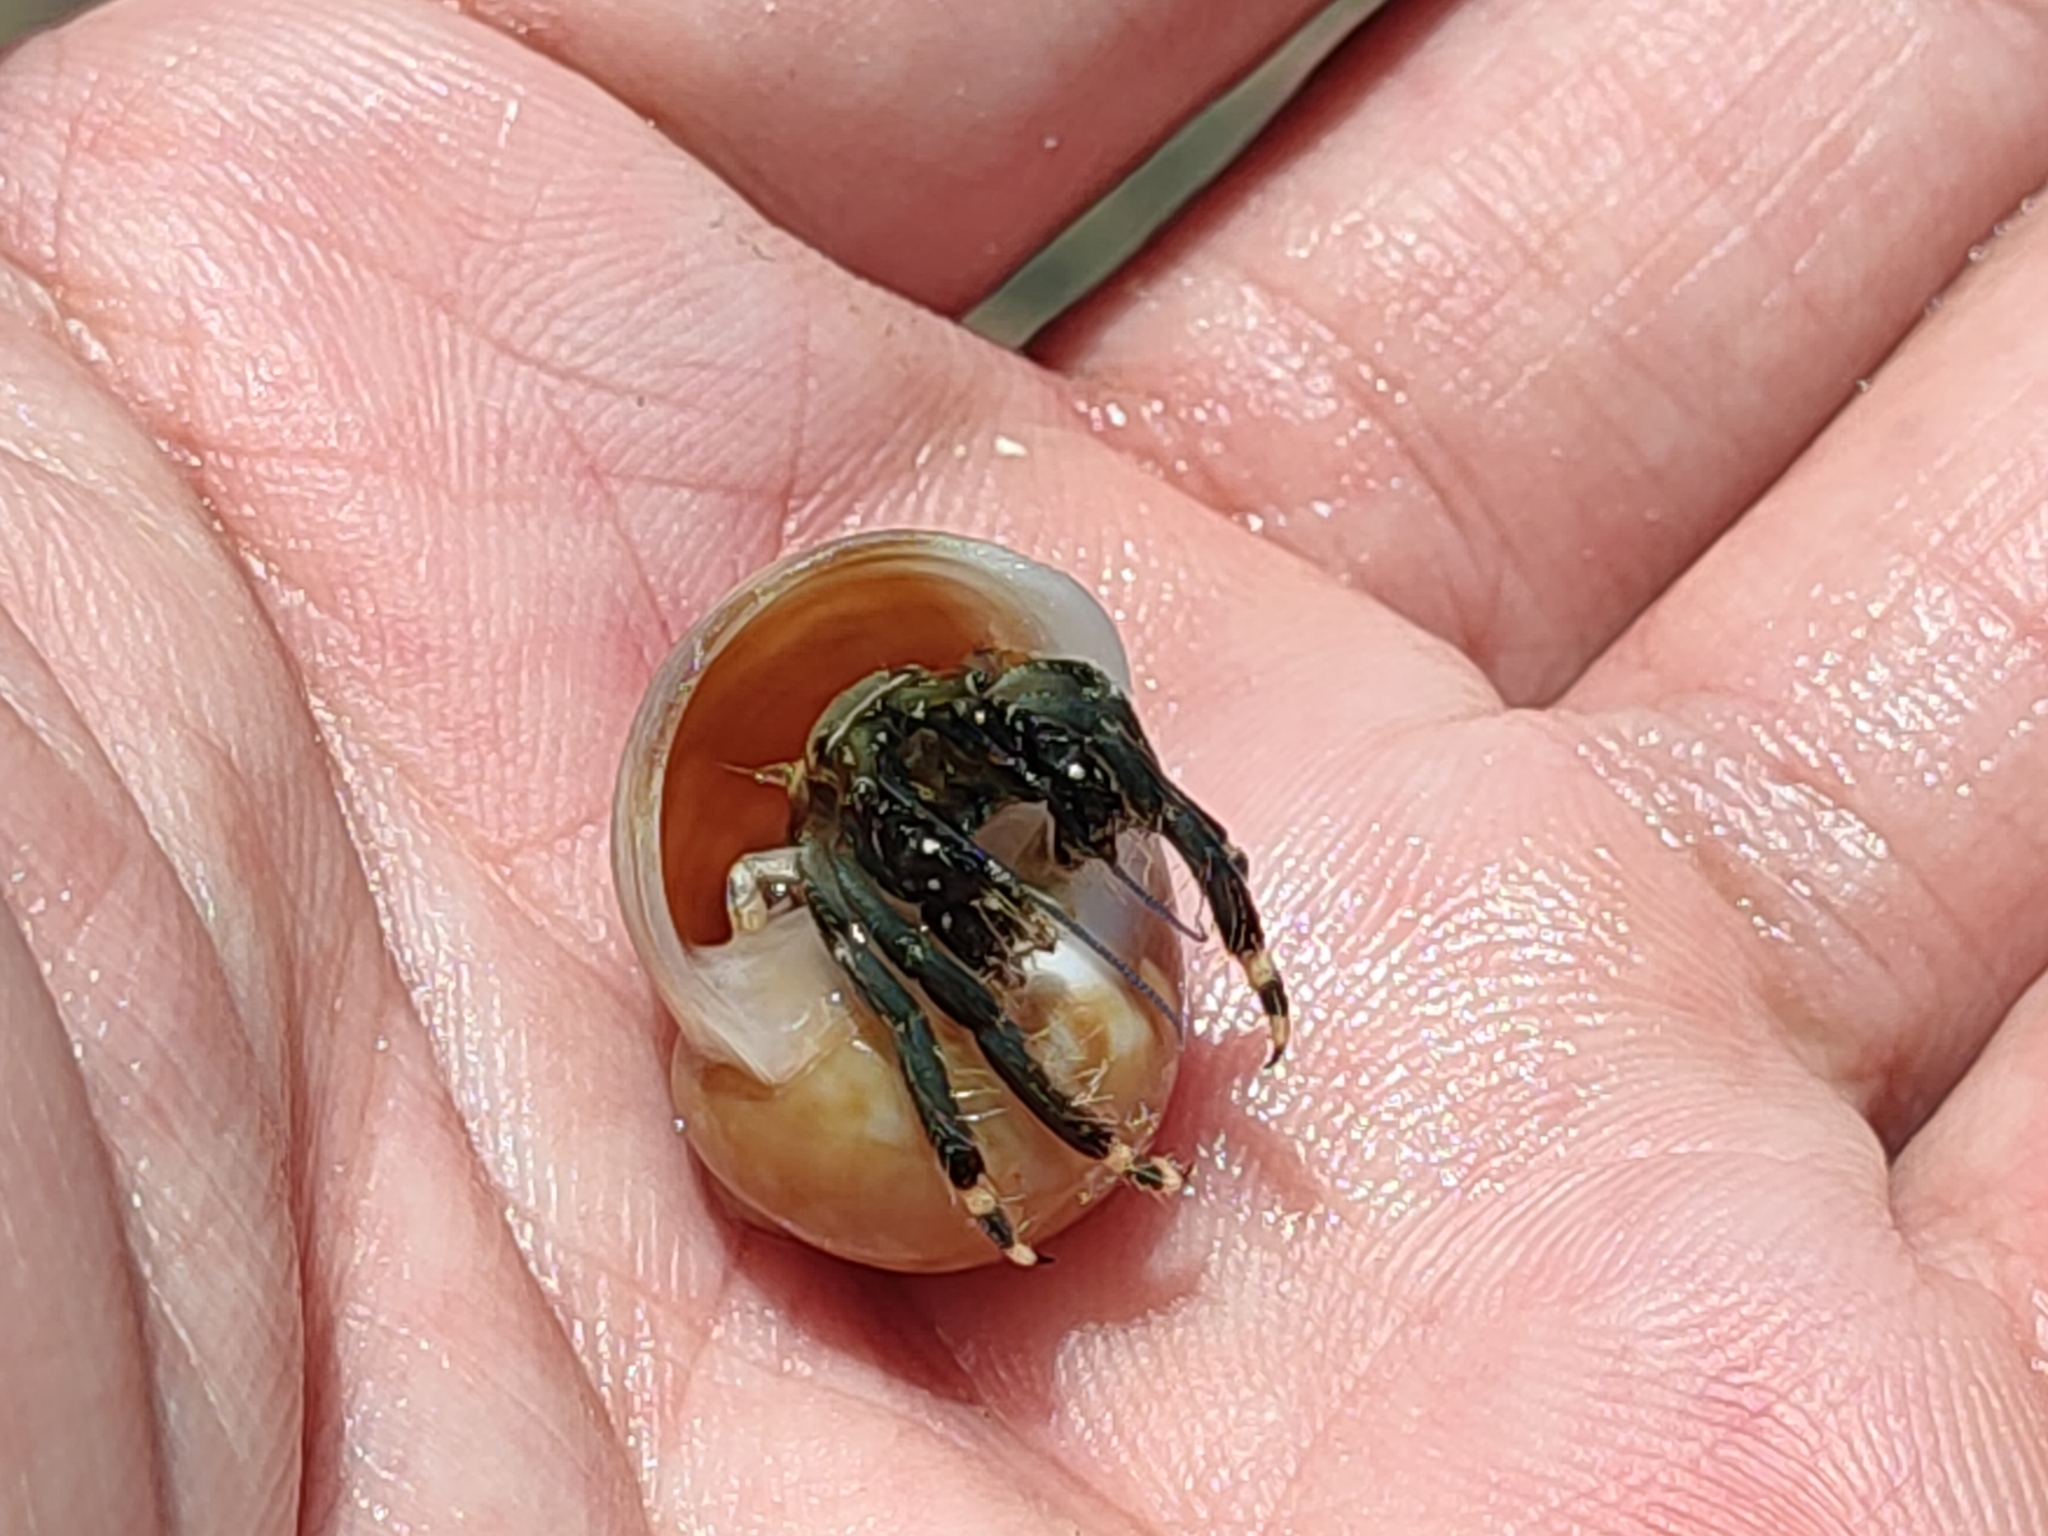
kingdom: Animalia
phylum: Arthropoda
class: Malacostraca
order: Decapoda
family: Diogenidae
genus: Clibanarius
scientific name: Clibanarius virescens
